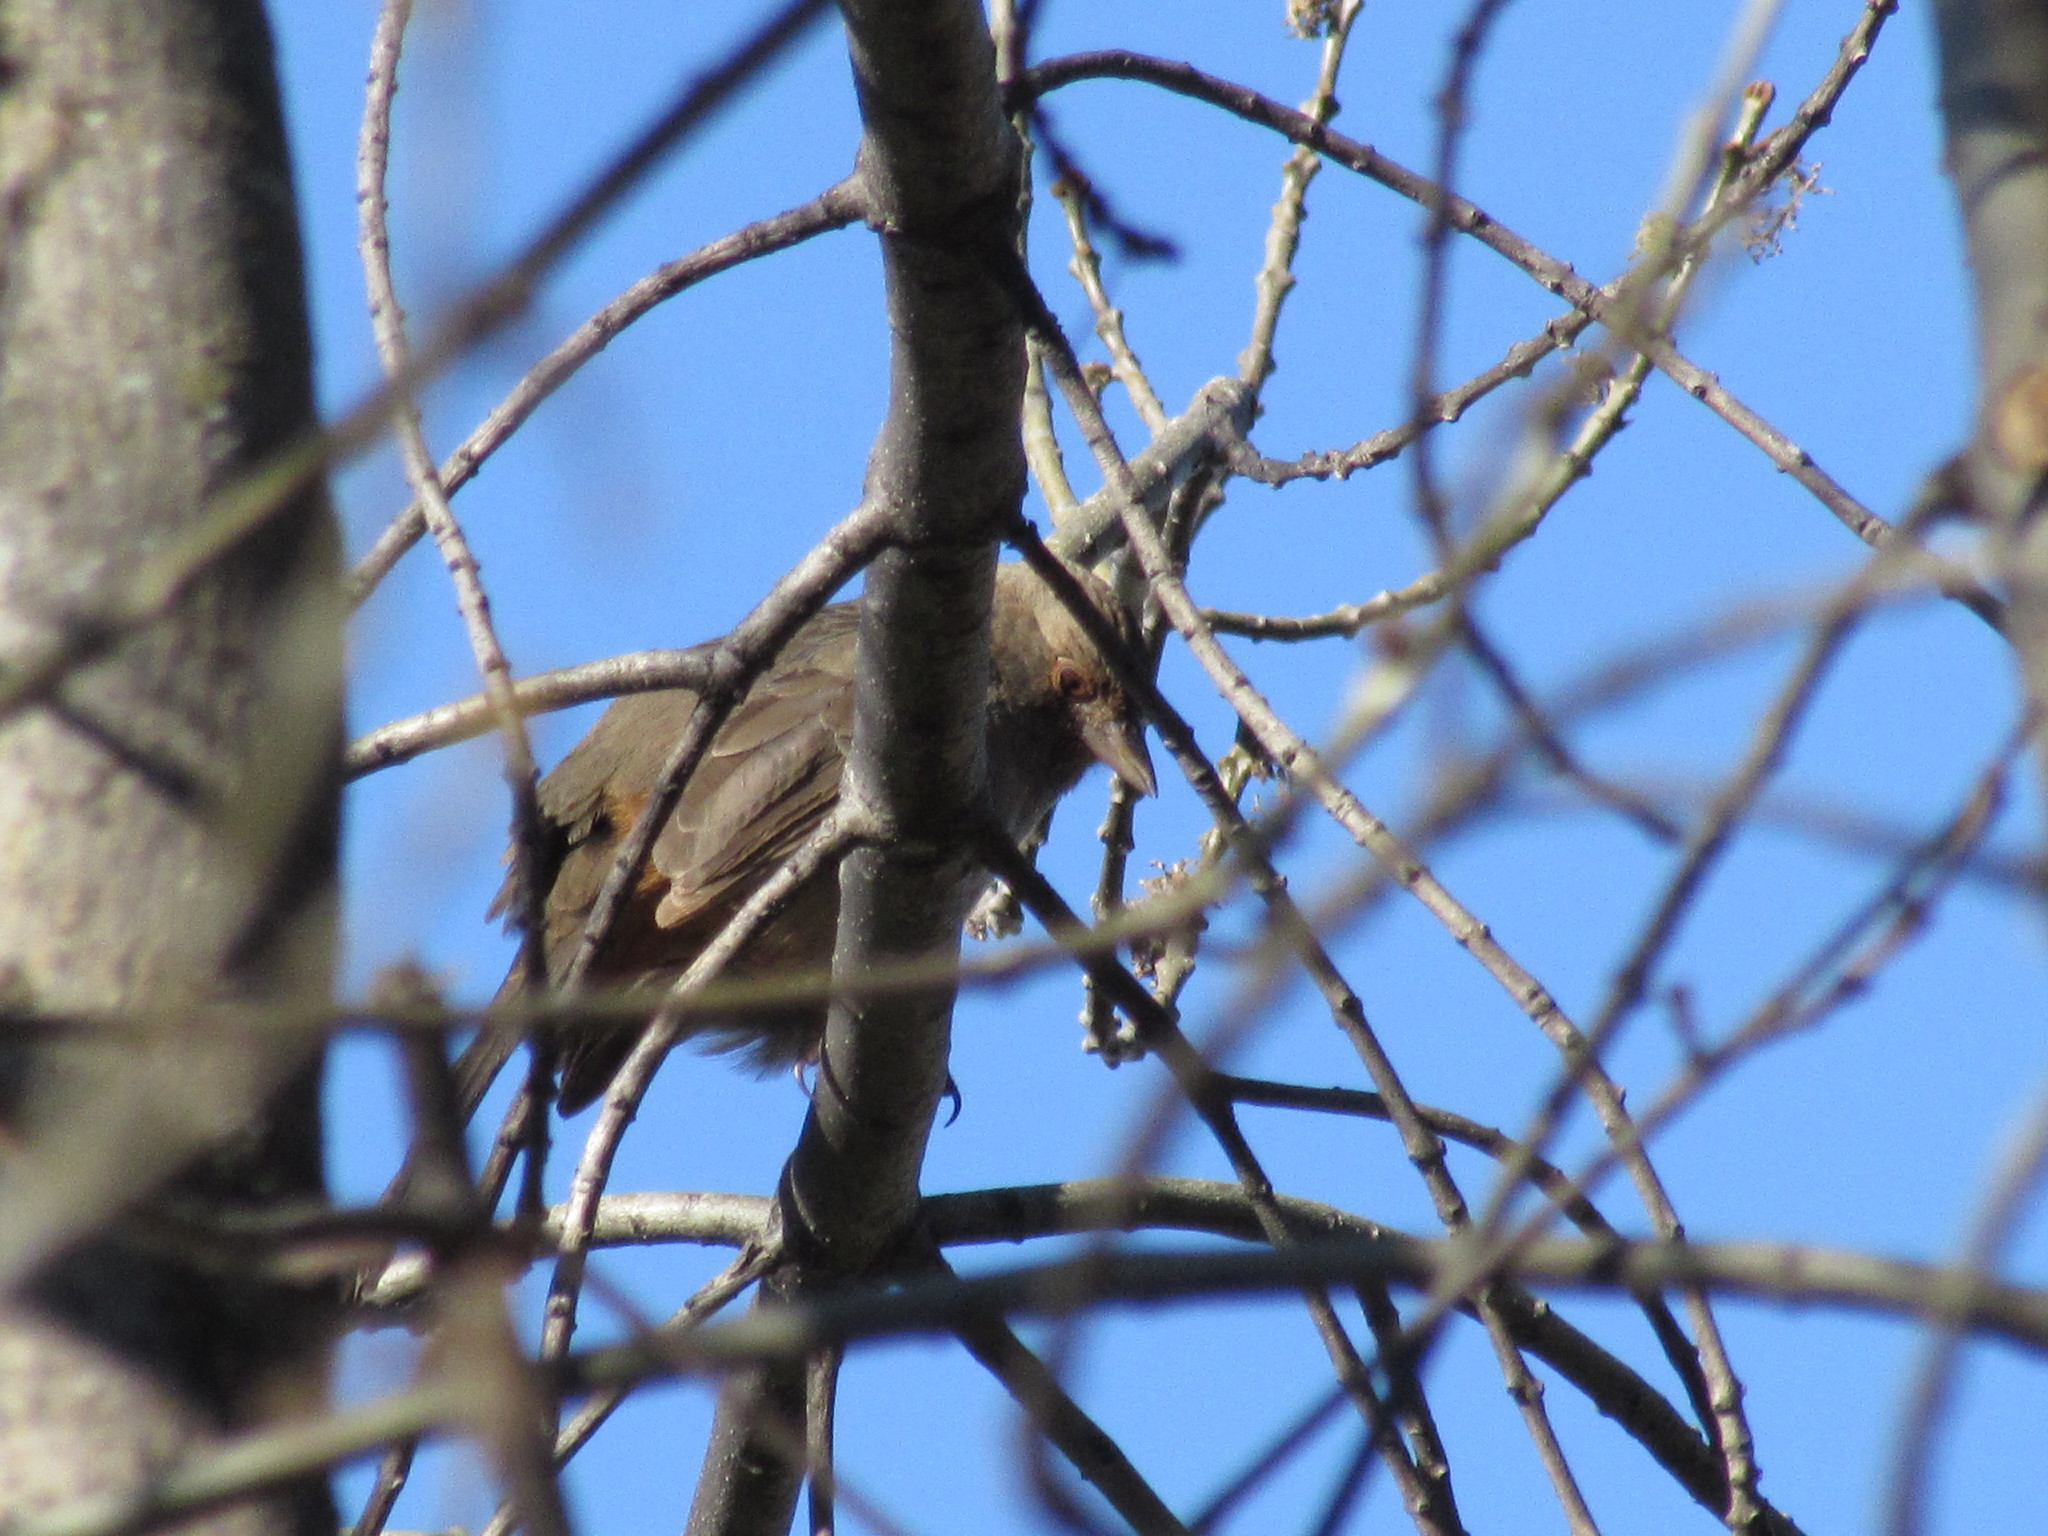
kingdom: Animalia
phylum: Chordata
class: Aves
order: Passeriformes
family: Passerellidae
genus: Melozone
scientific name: Melozone crissalis
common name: California towhee
